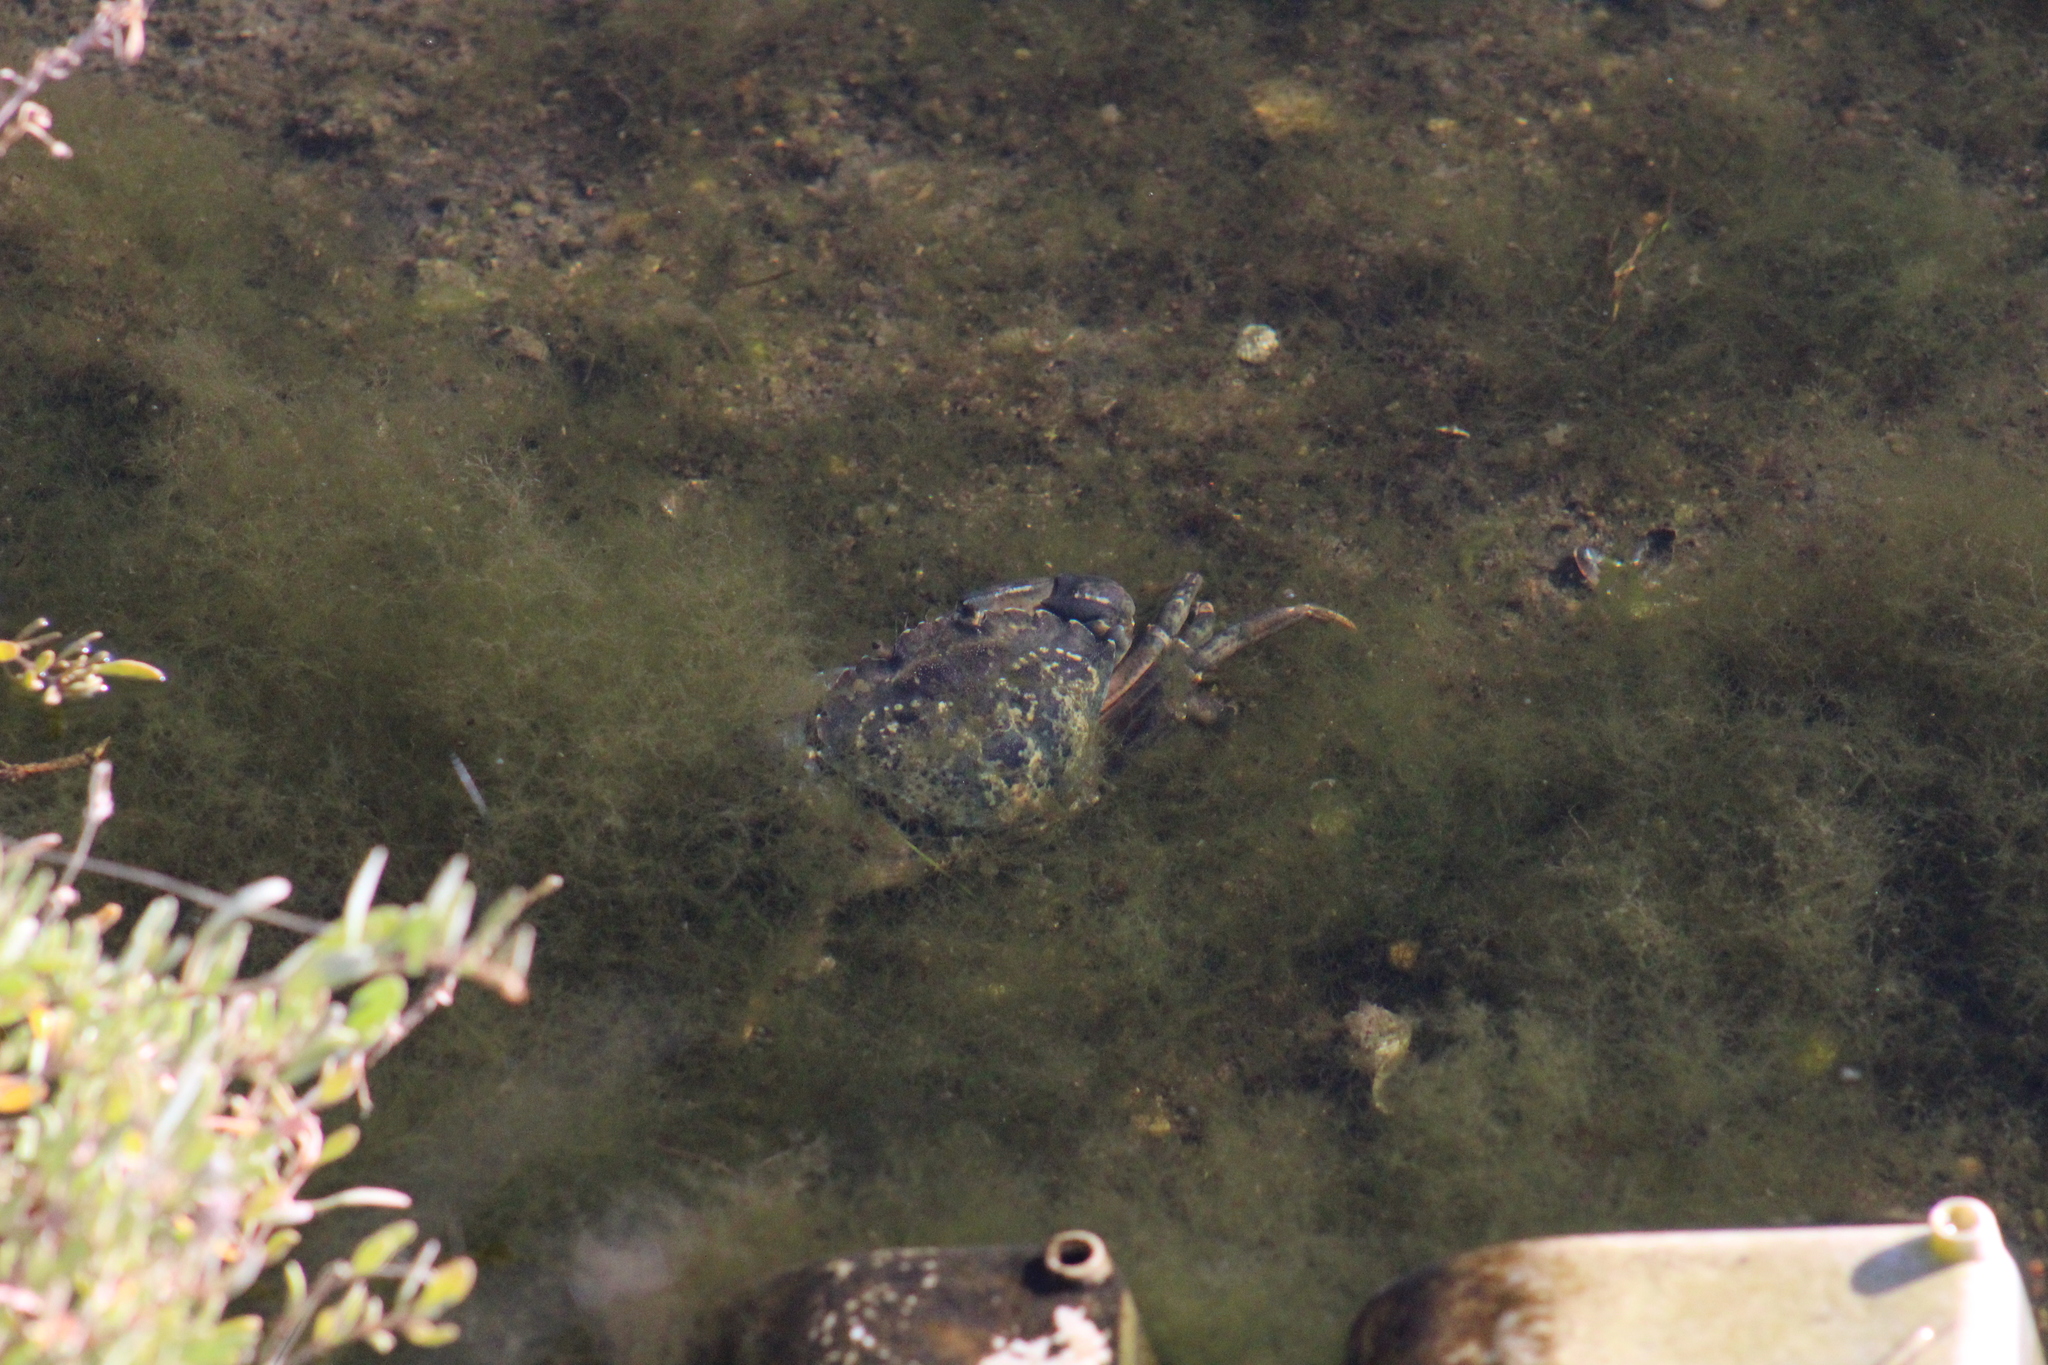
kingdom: Animalia
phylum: Arthropoda
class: Malacostraca
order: Decapoda
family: Carcinidae
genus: Carcinus
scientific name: Carcinus maenas
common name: European green crab
